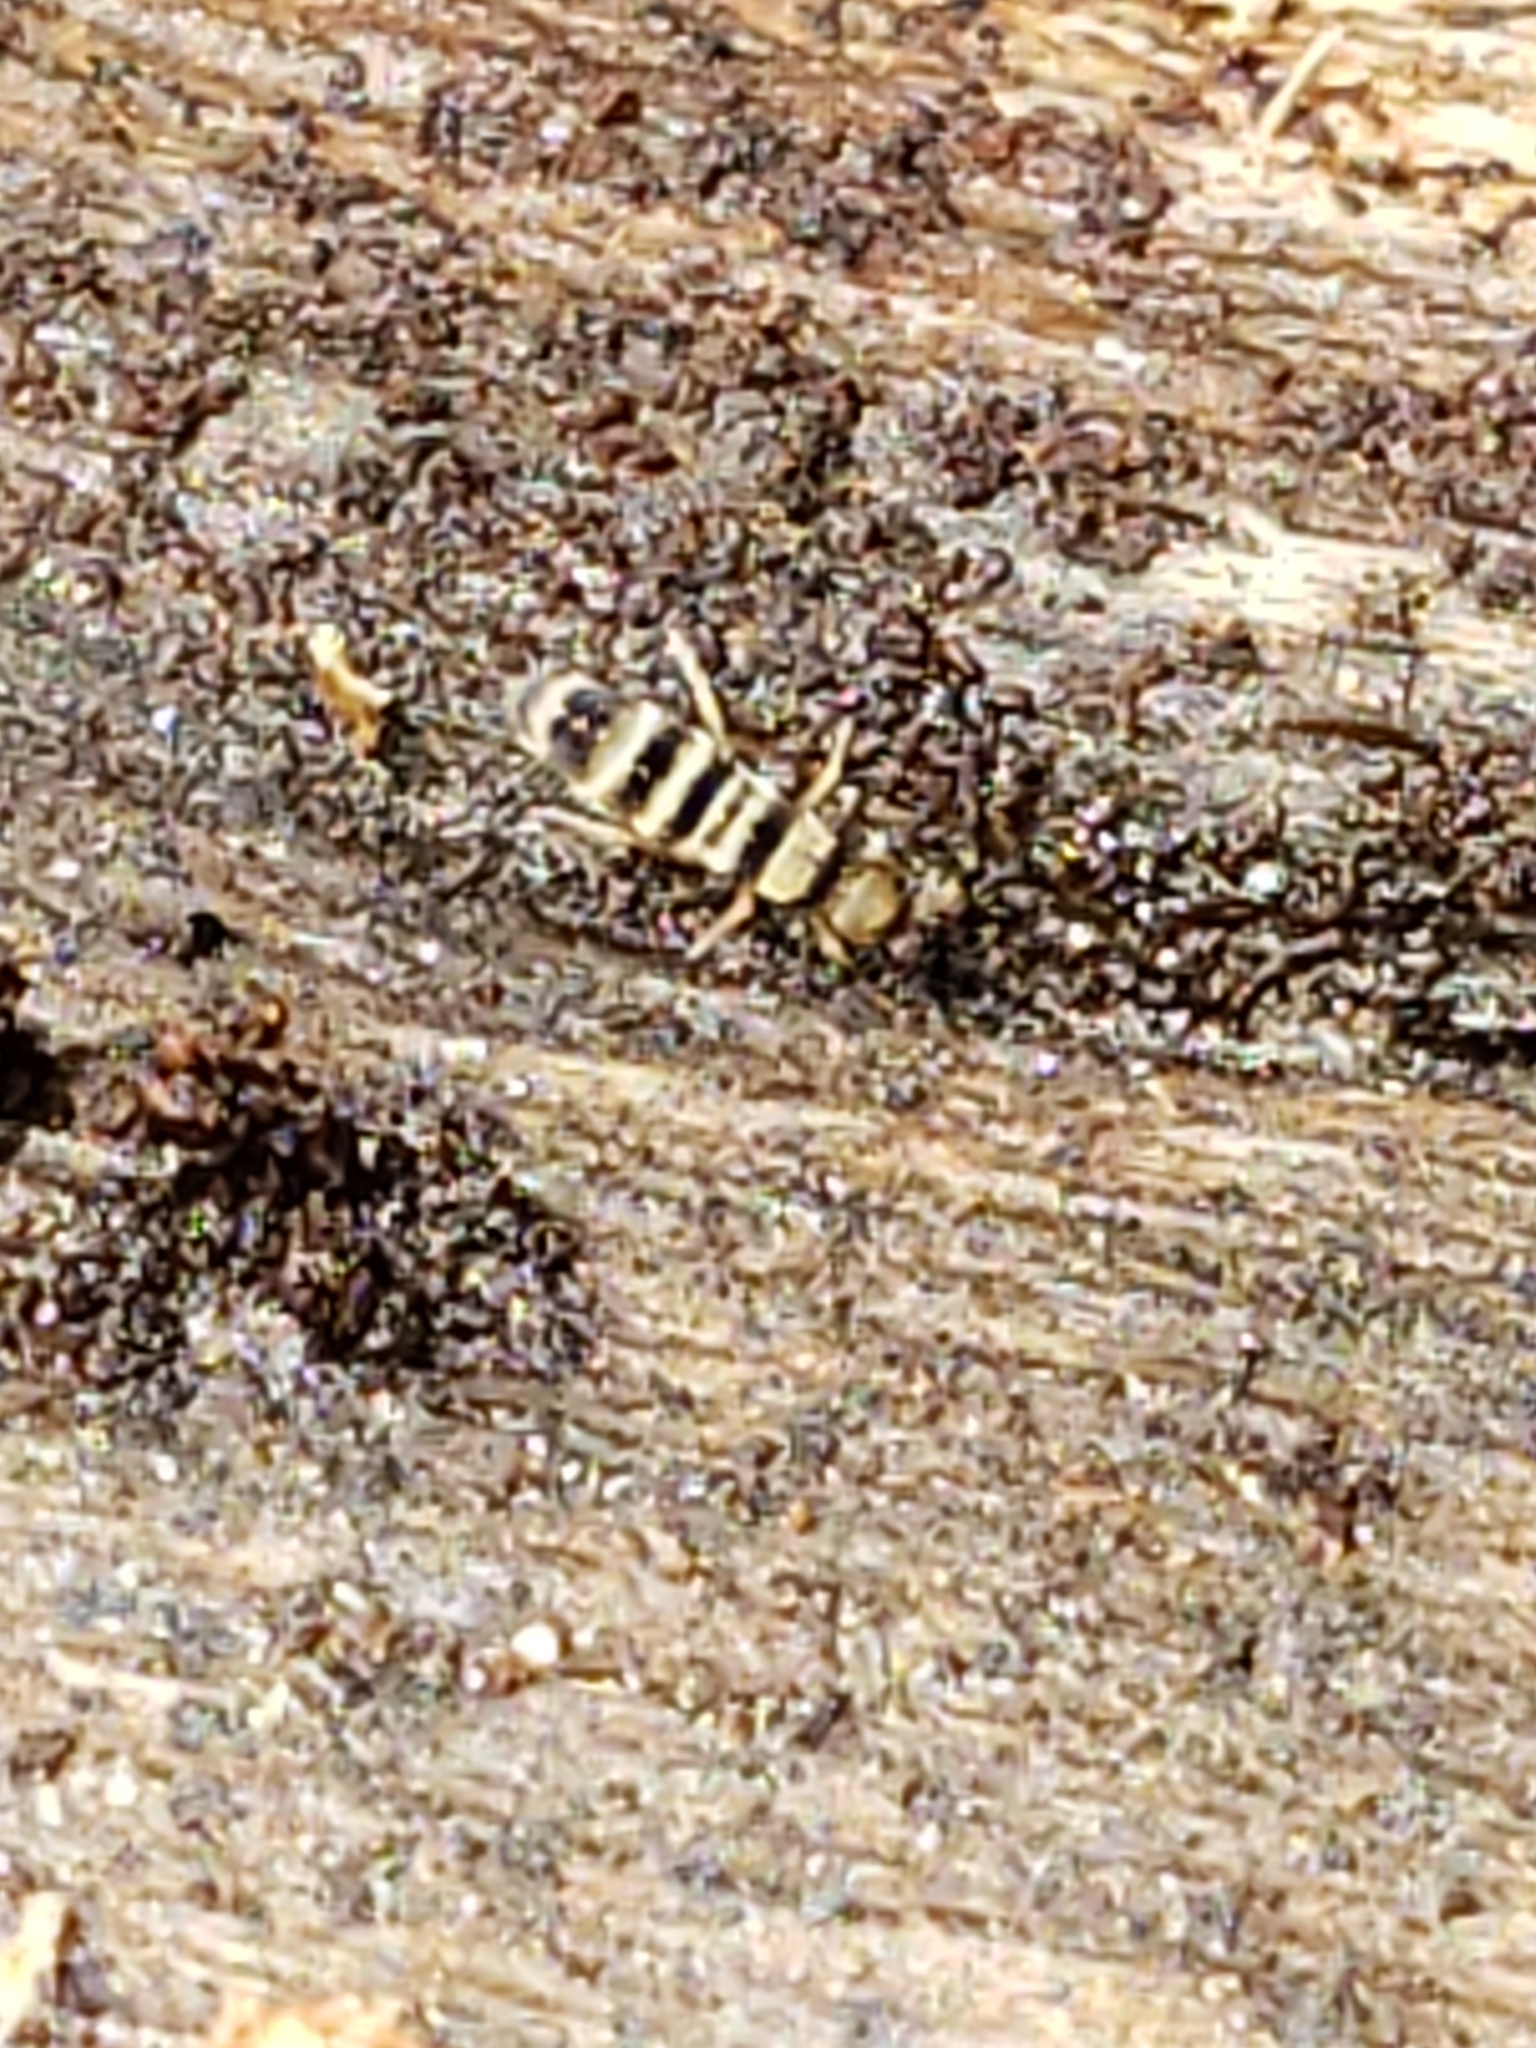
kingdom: Animalia
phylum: Arthropoda
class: Collembola
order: Entomobryomorpha
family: Orchesellidae
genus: Orchesella
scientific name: Orchesella hexfasciata
